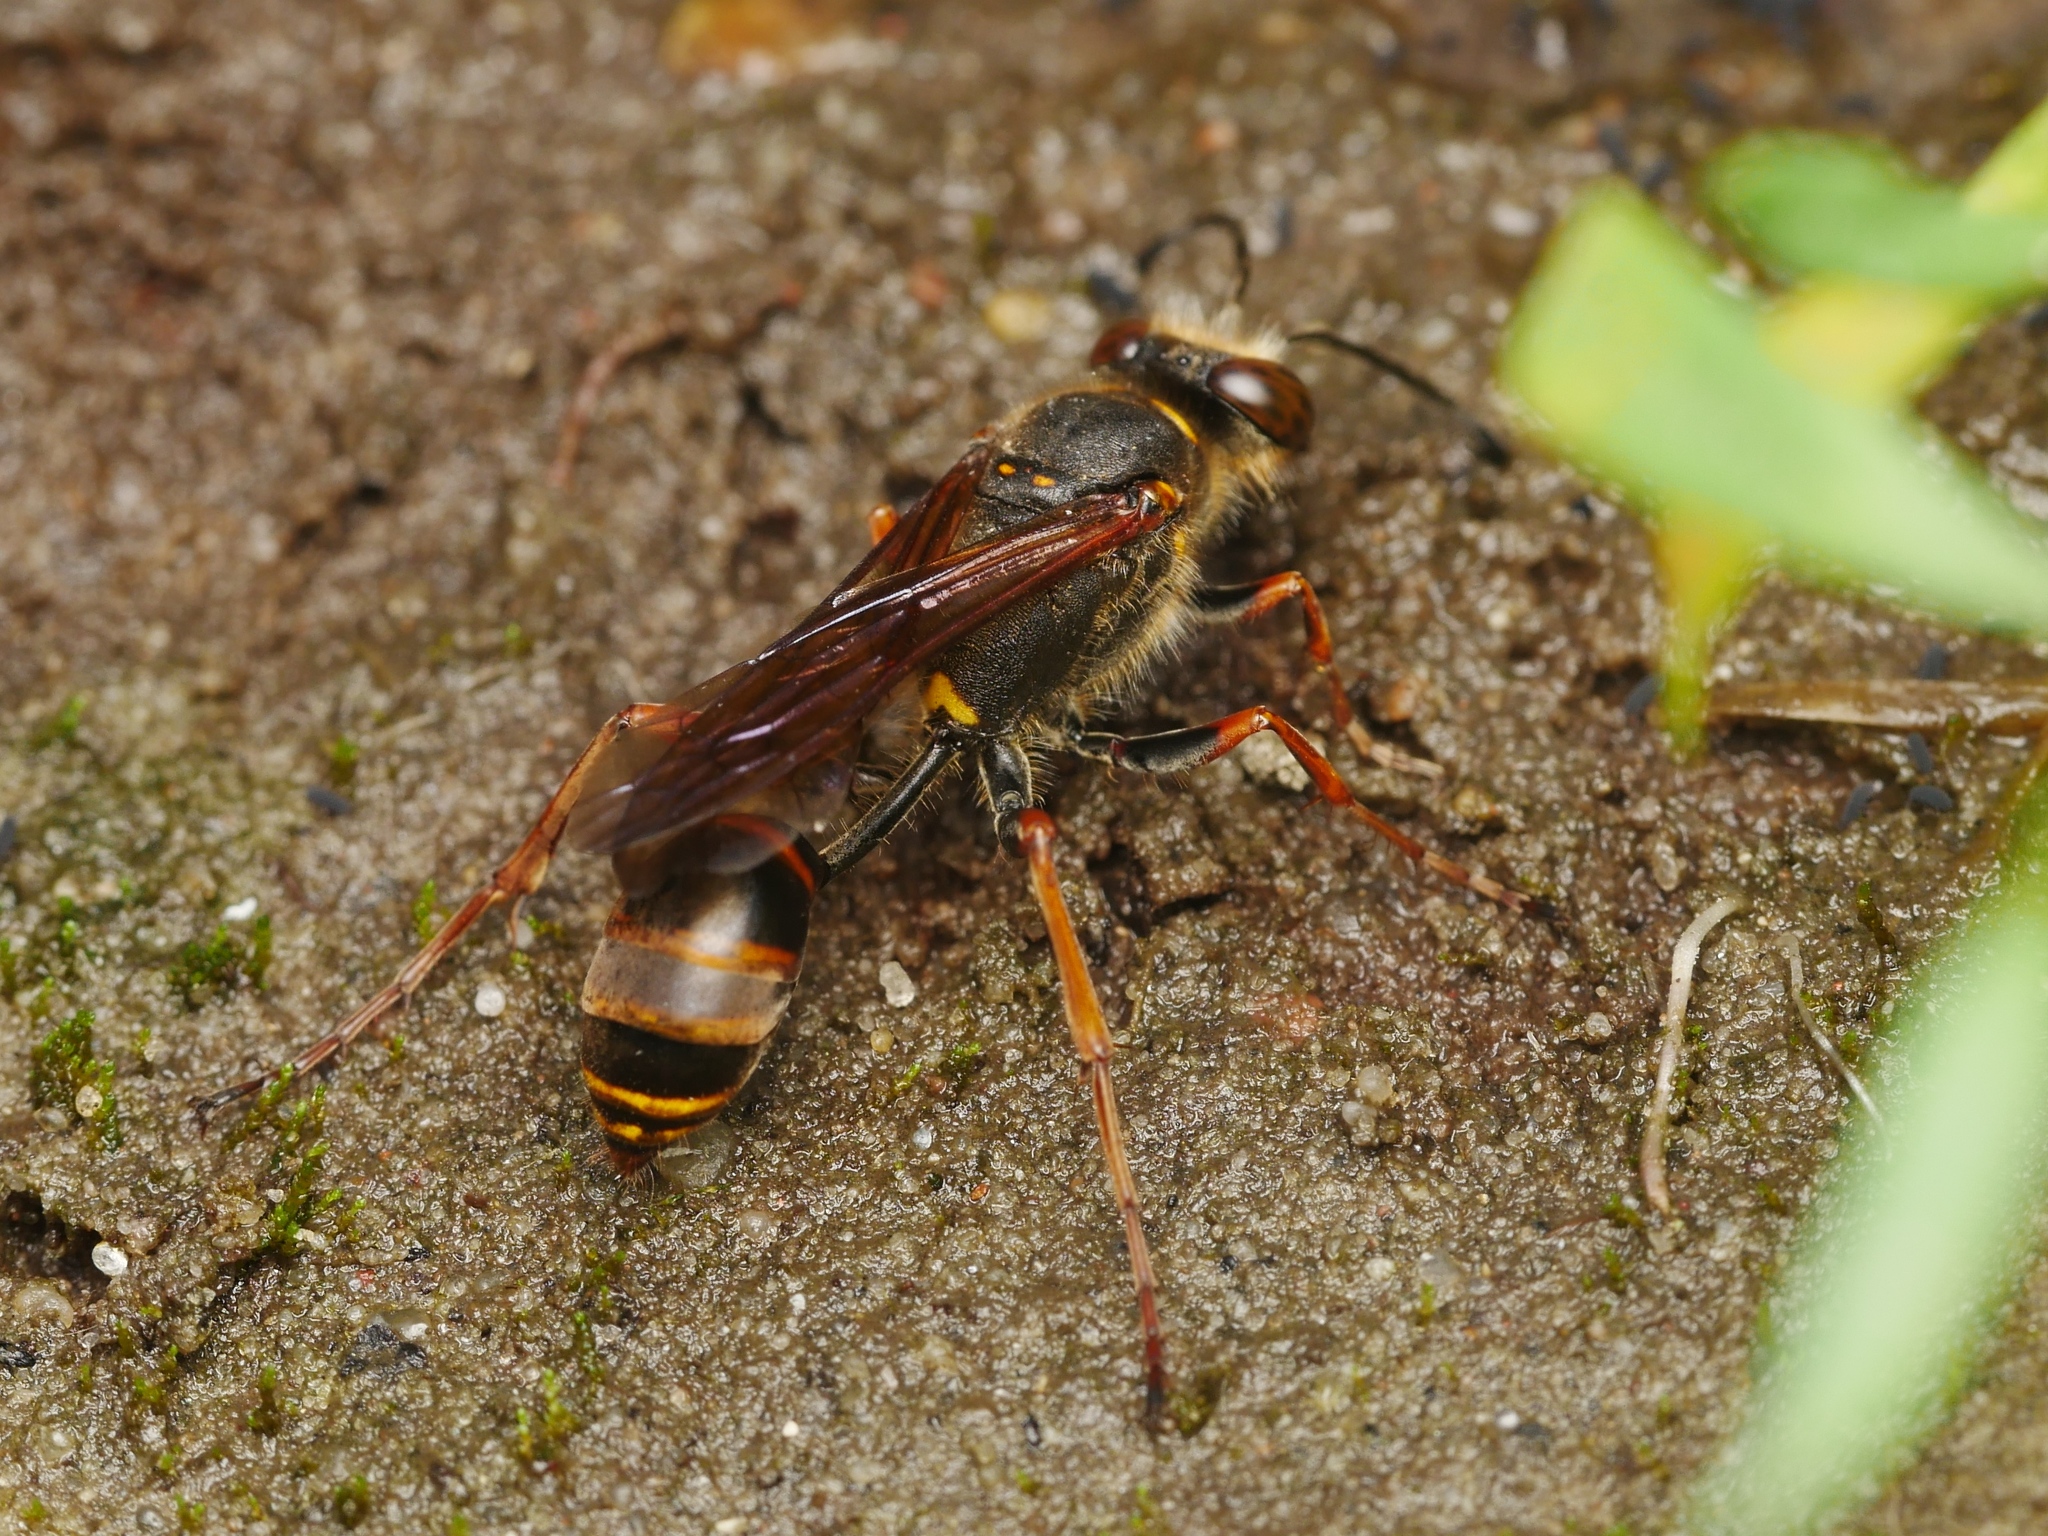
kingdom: Animalia
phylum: Arthropoda
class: Insecta
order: Hymenoptera
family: Sphecidae
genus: Sceliphron
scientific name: Sceliphron curvatum
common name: Pèlopèe
